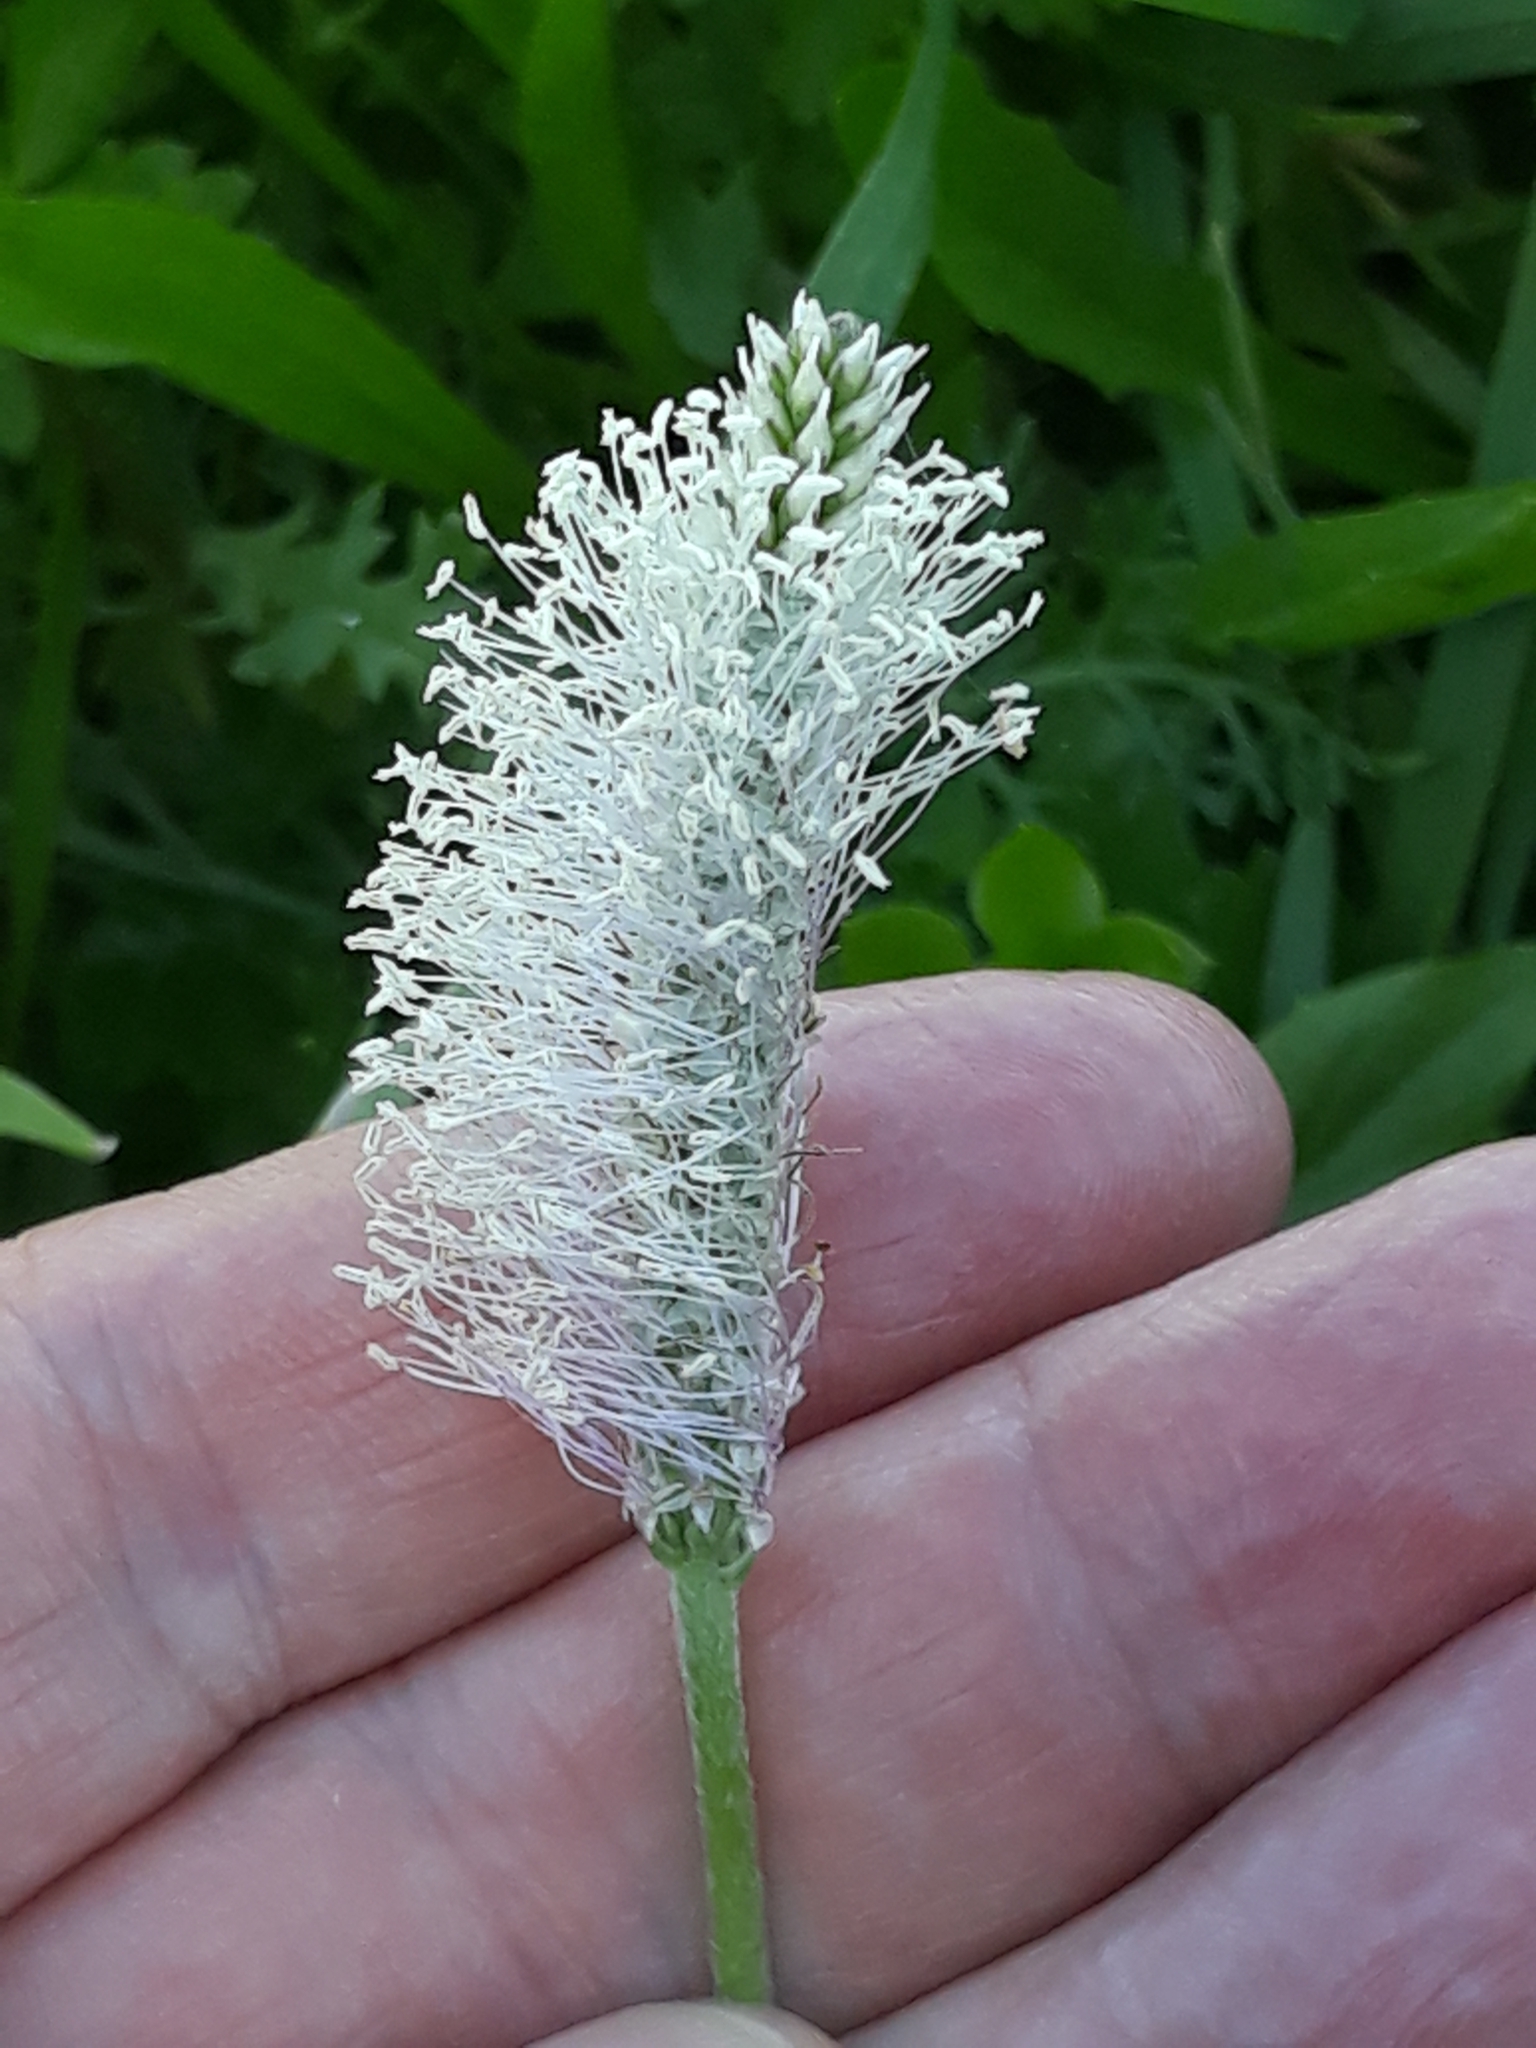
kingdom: Plantae
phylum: Tracheophyta
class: Magnoliopsida
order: Lamiales
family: Plantaginaceae
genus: Plantago
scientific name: Plantago media
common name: Hoary plantain
